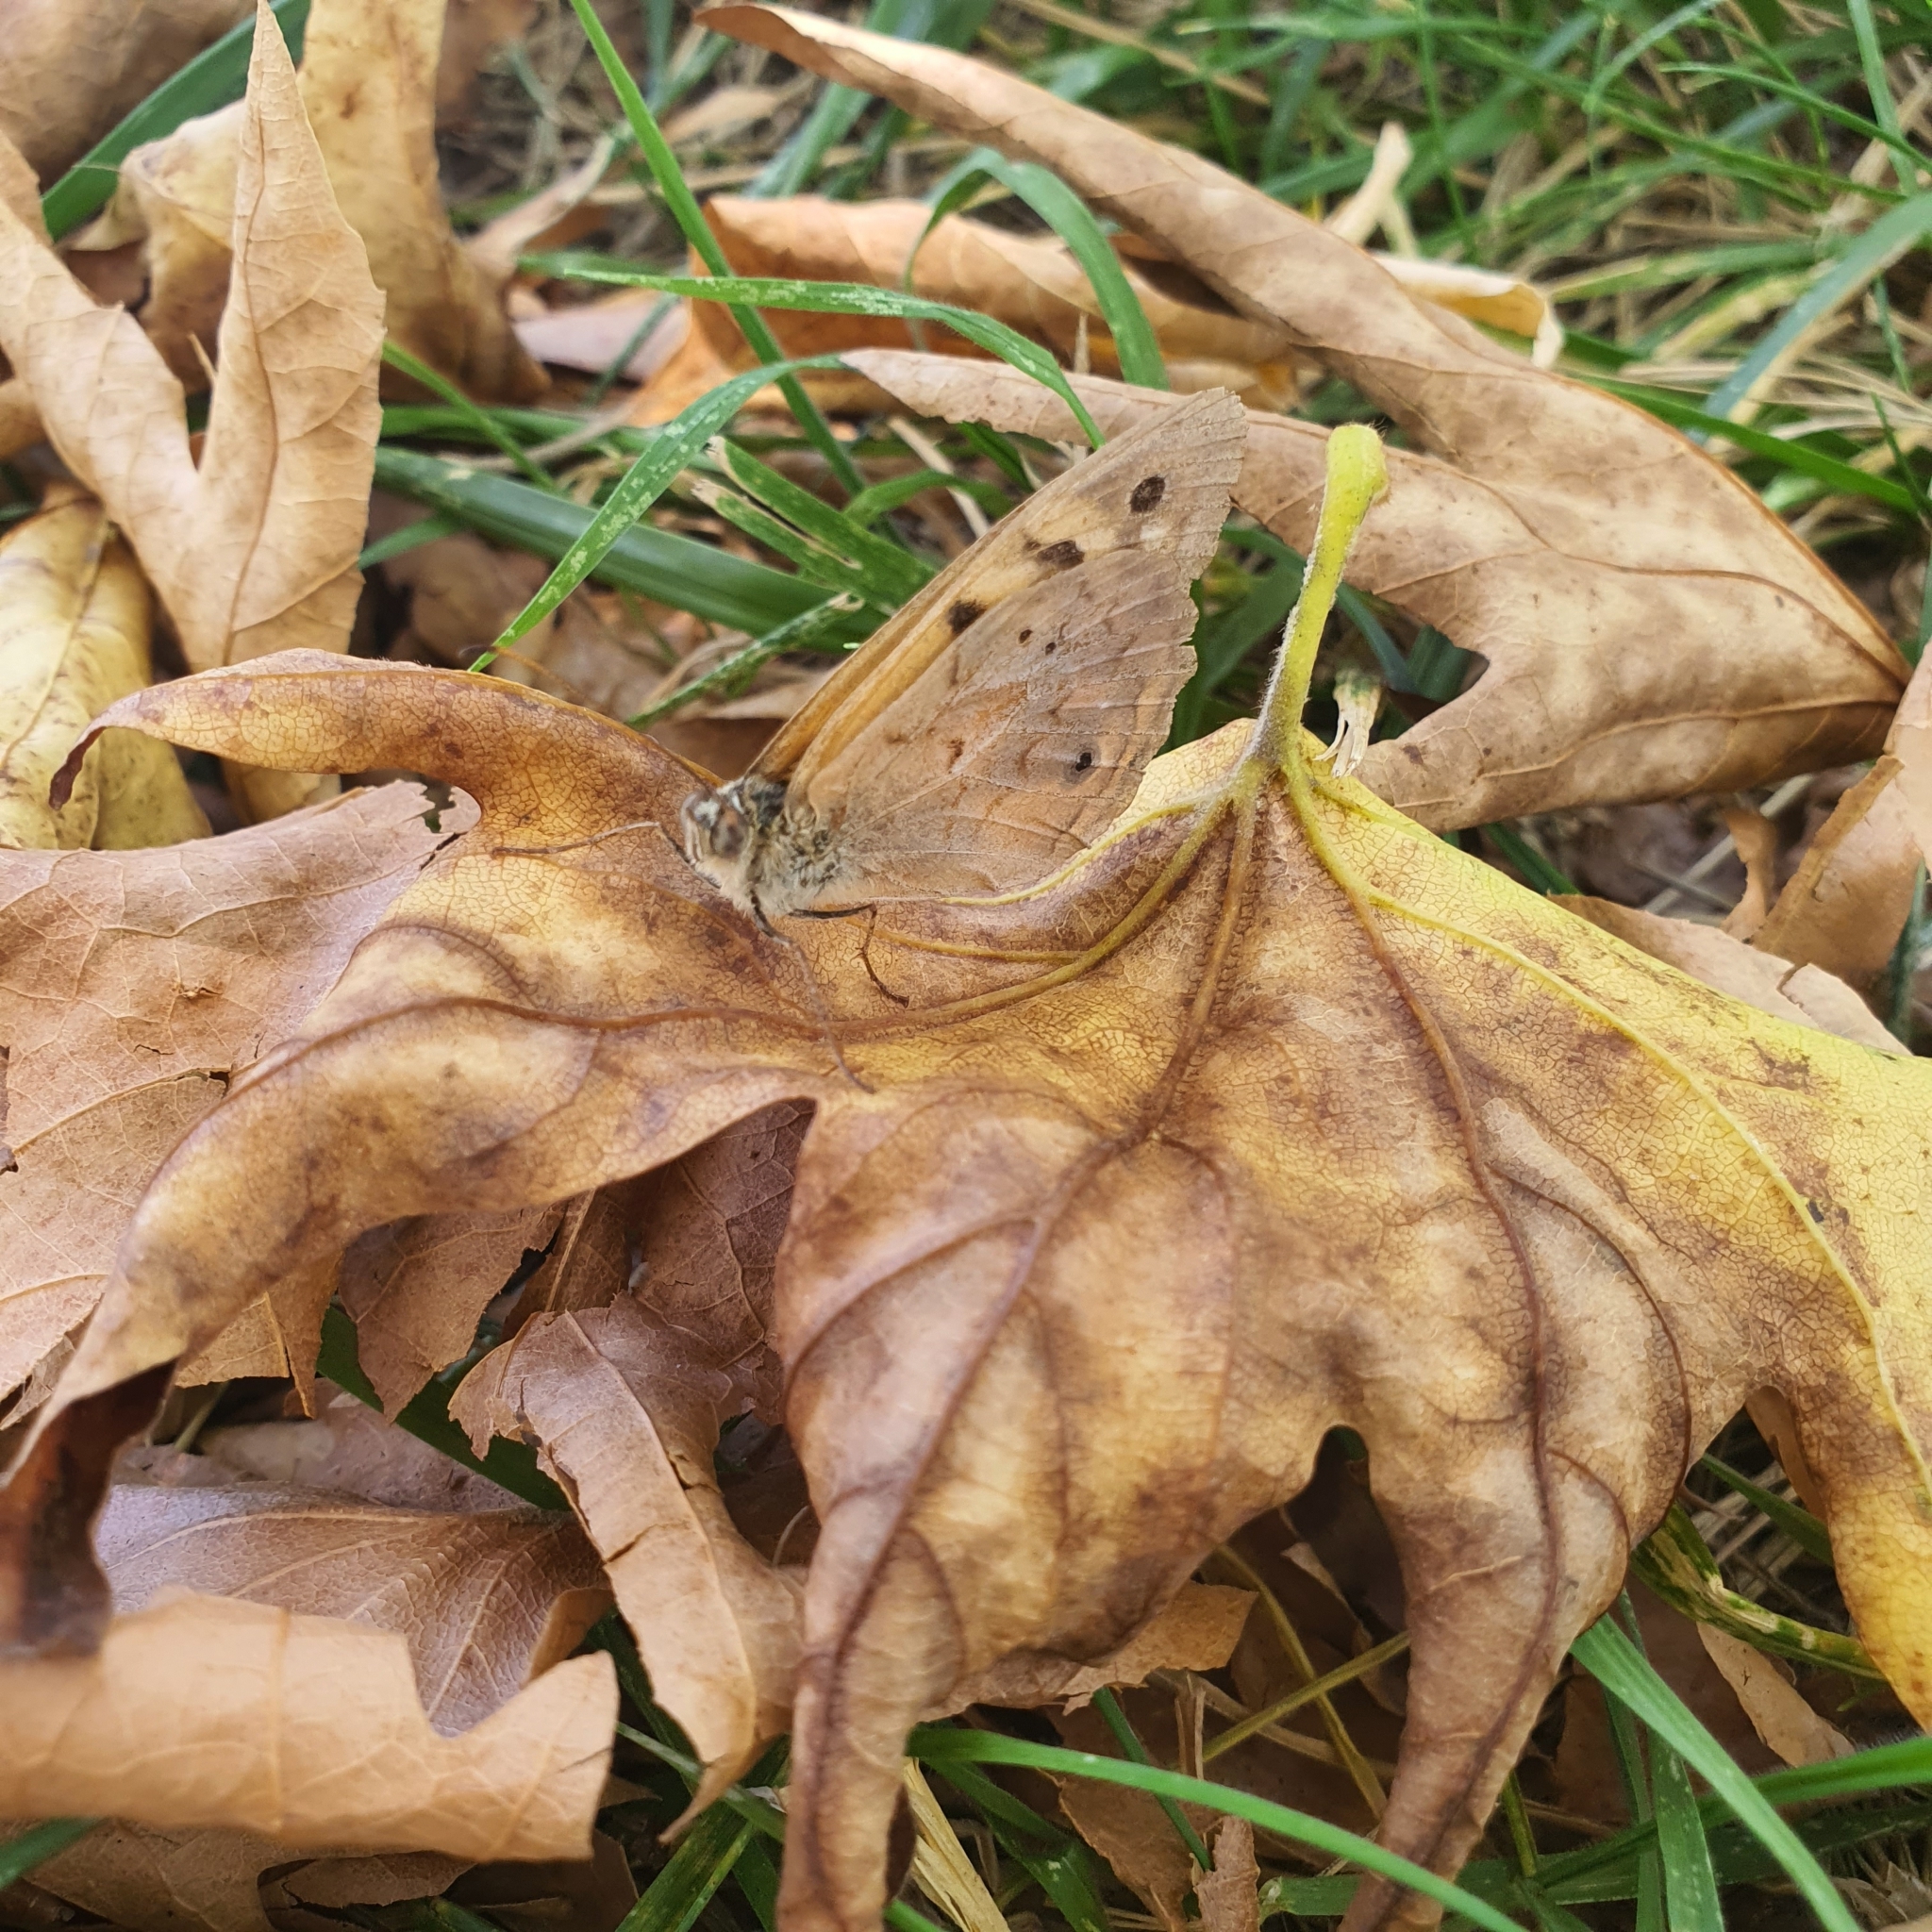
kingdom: Animalia
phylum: Arthropoda
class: Insecta
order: Lepidoptera
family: Nymphalidae
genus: Heteronympha
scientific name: Heteronympha merope
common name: Common brown
